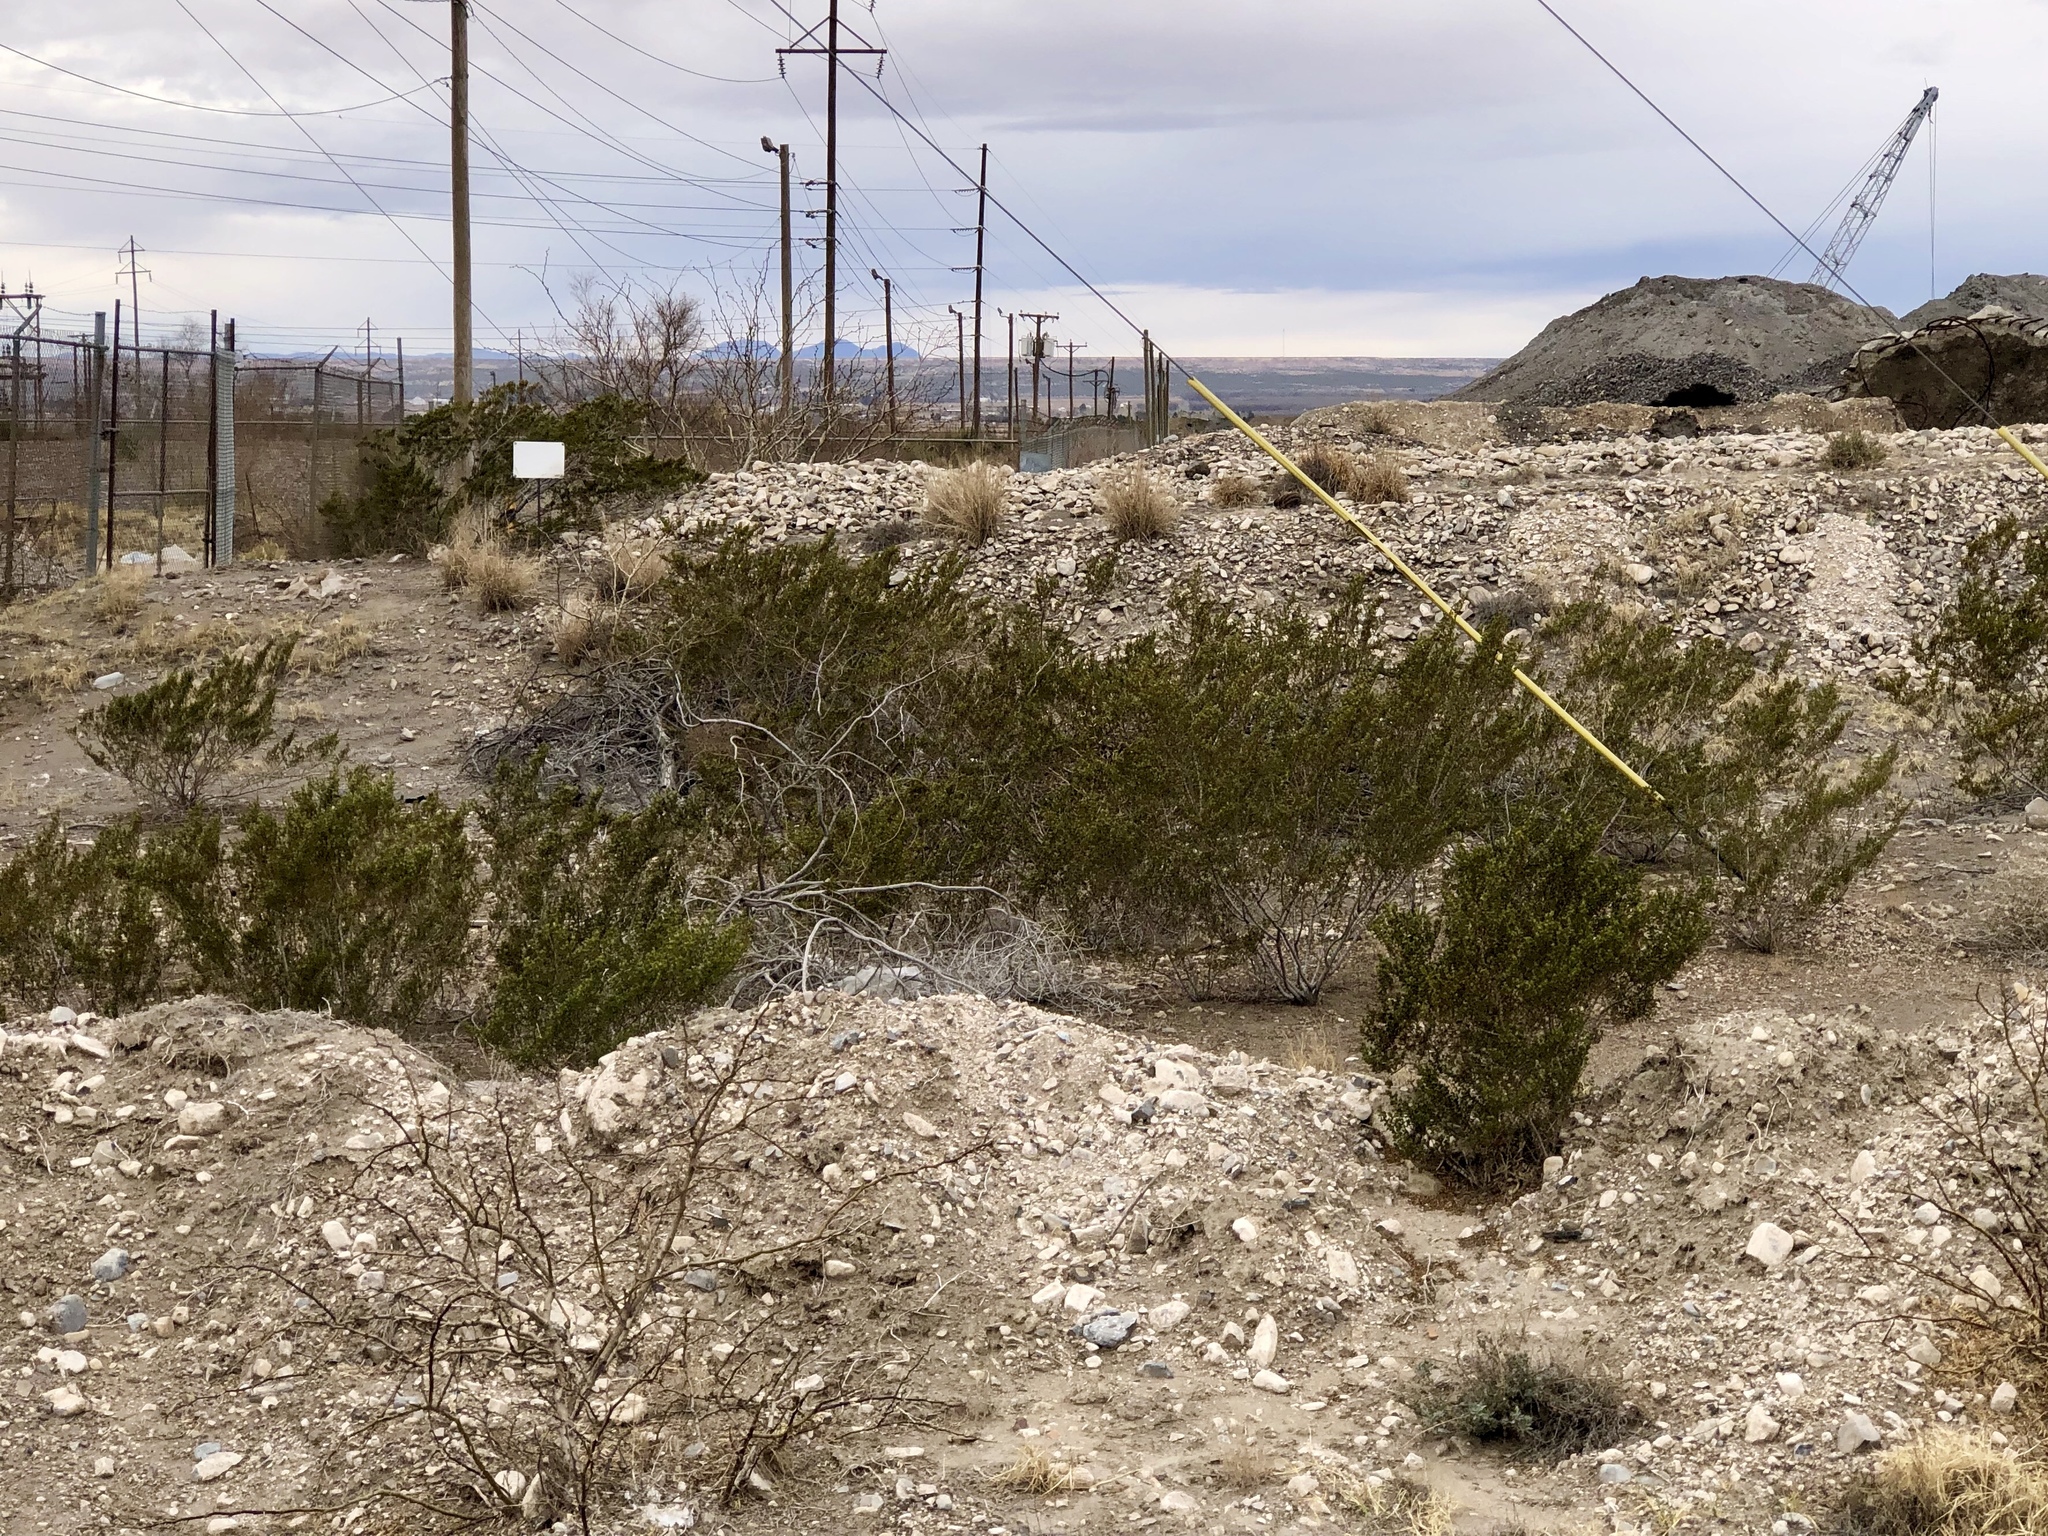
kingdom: Plantae
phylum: Tracheophyta
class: Magnoliopsida
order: Zygophyllales
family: Zygophyllaceae
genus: Larrea
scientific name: Larrea tridentata
